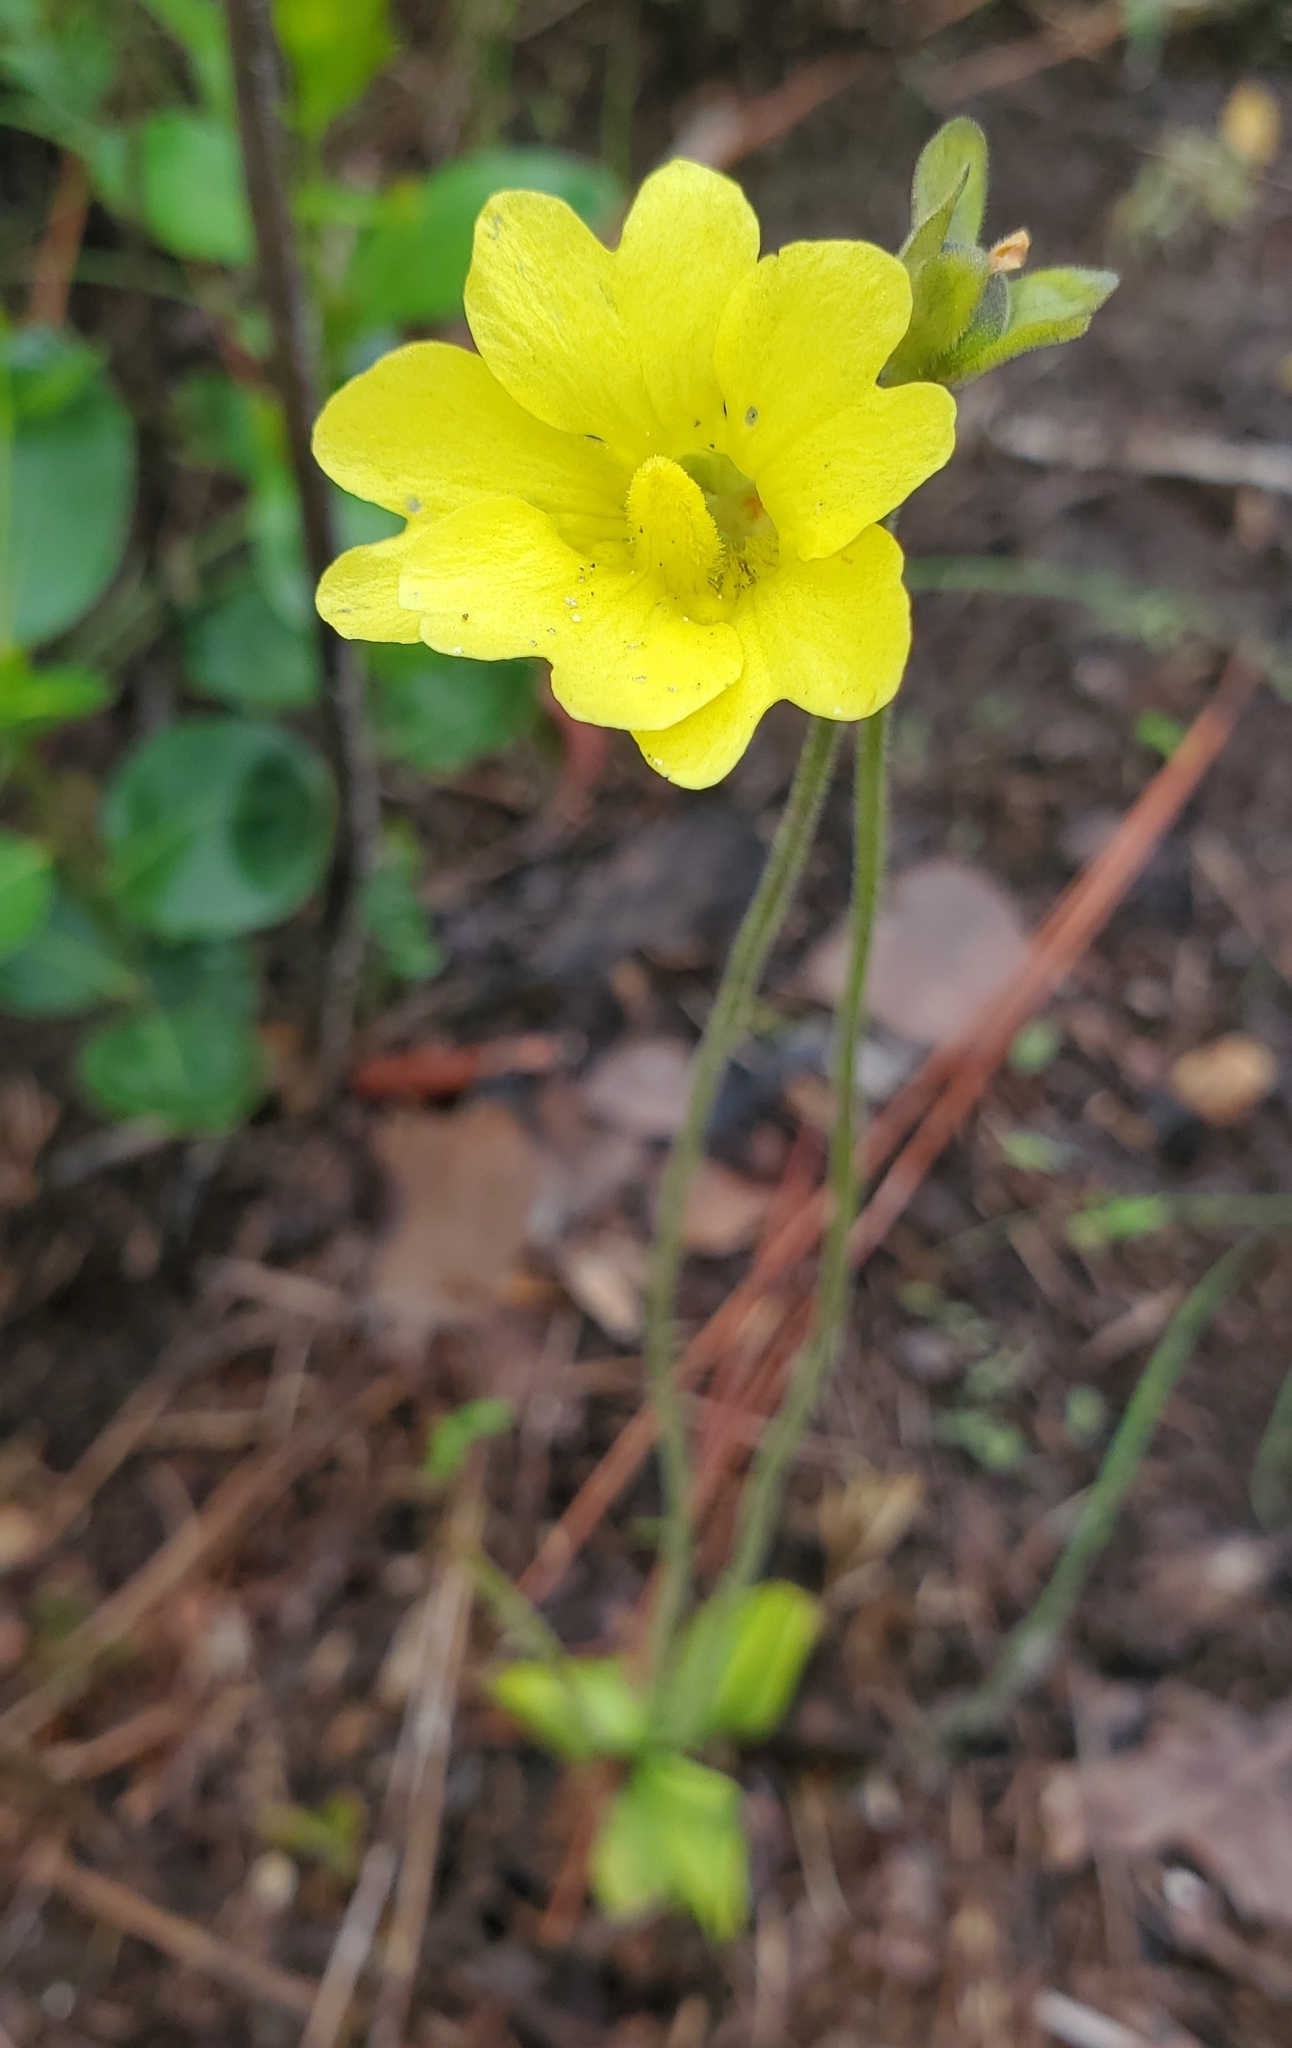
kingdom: Plantae
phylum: Tracheophyta
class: Magnoliopsida
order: Lamiales
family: Lentibulariaceae
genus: Pinguicula
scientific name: Pinguicula lutea
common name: Yellow butterwort
